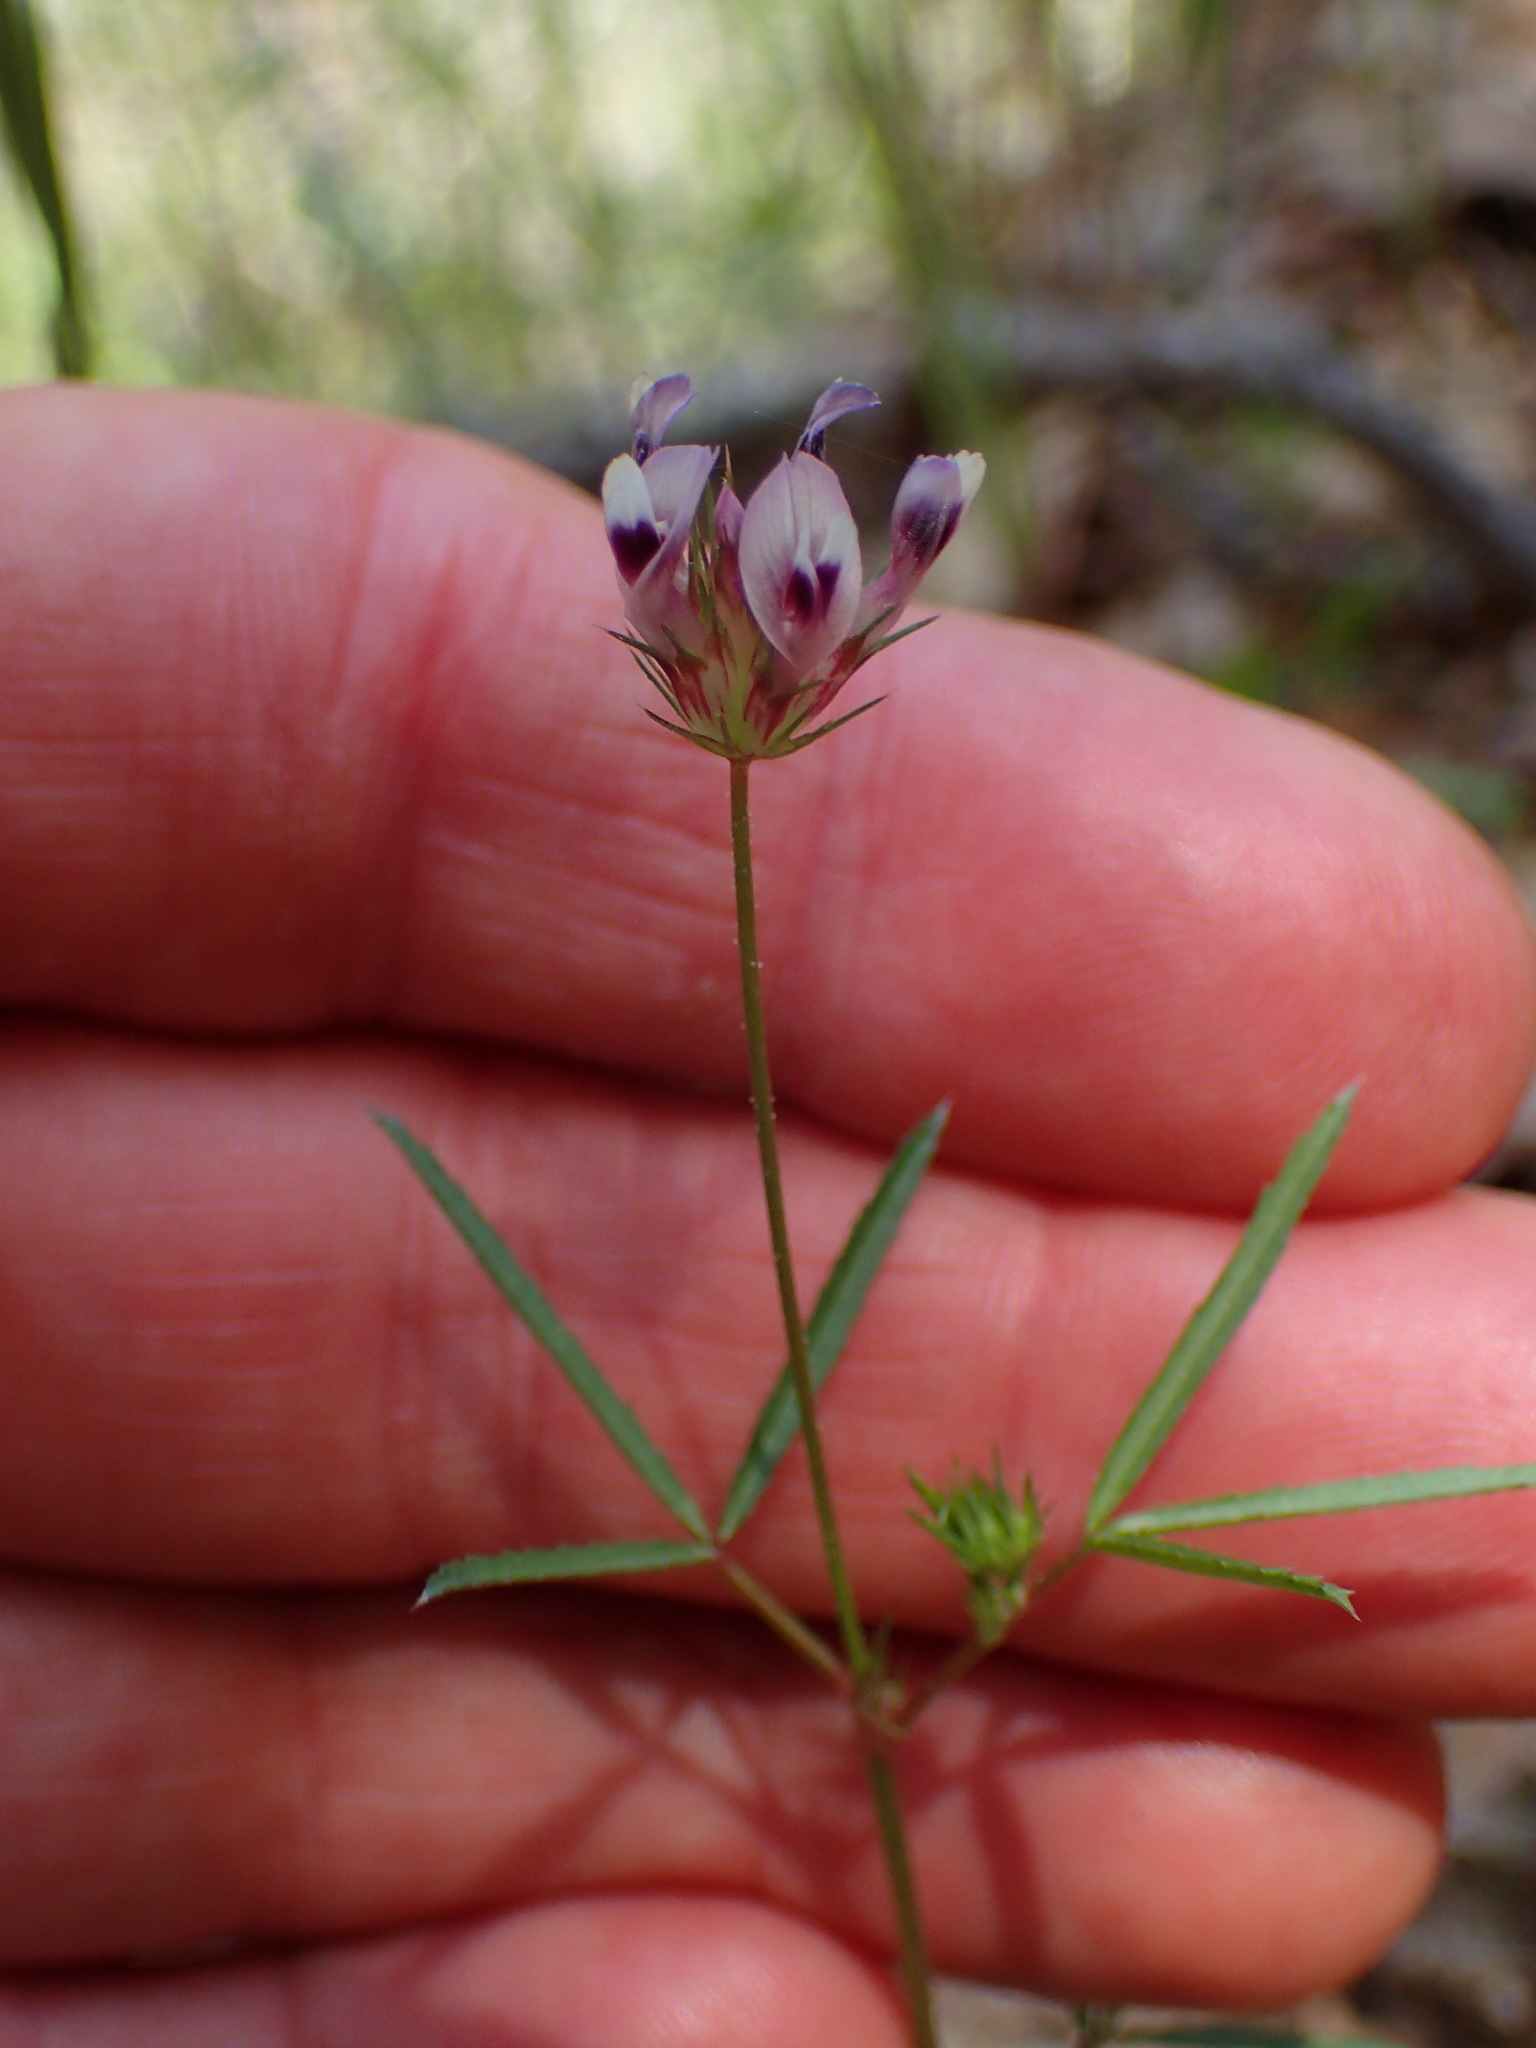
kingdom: Plantae
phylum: Tracheophyta
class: Magnoliopsida
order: Fabales
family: Fabaceae
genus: Trifolium
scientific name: Trifolium willdenovii
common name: Tomcat clover
